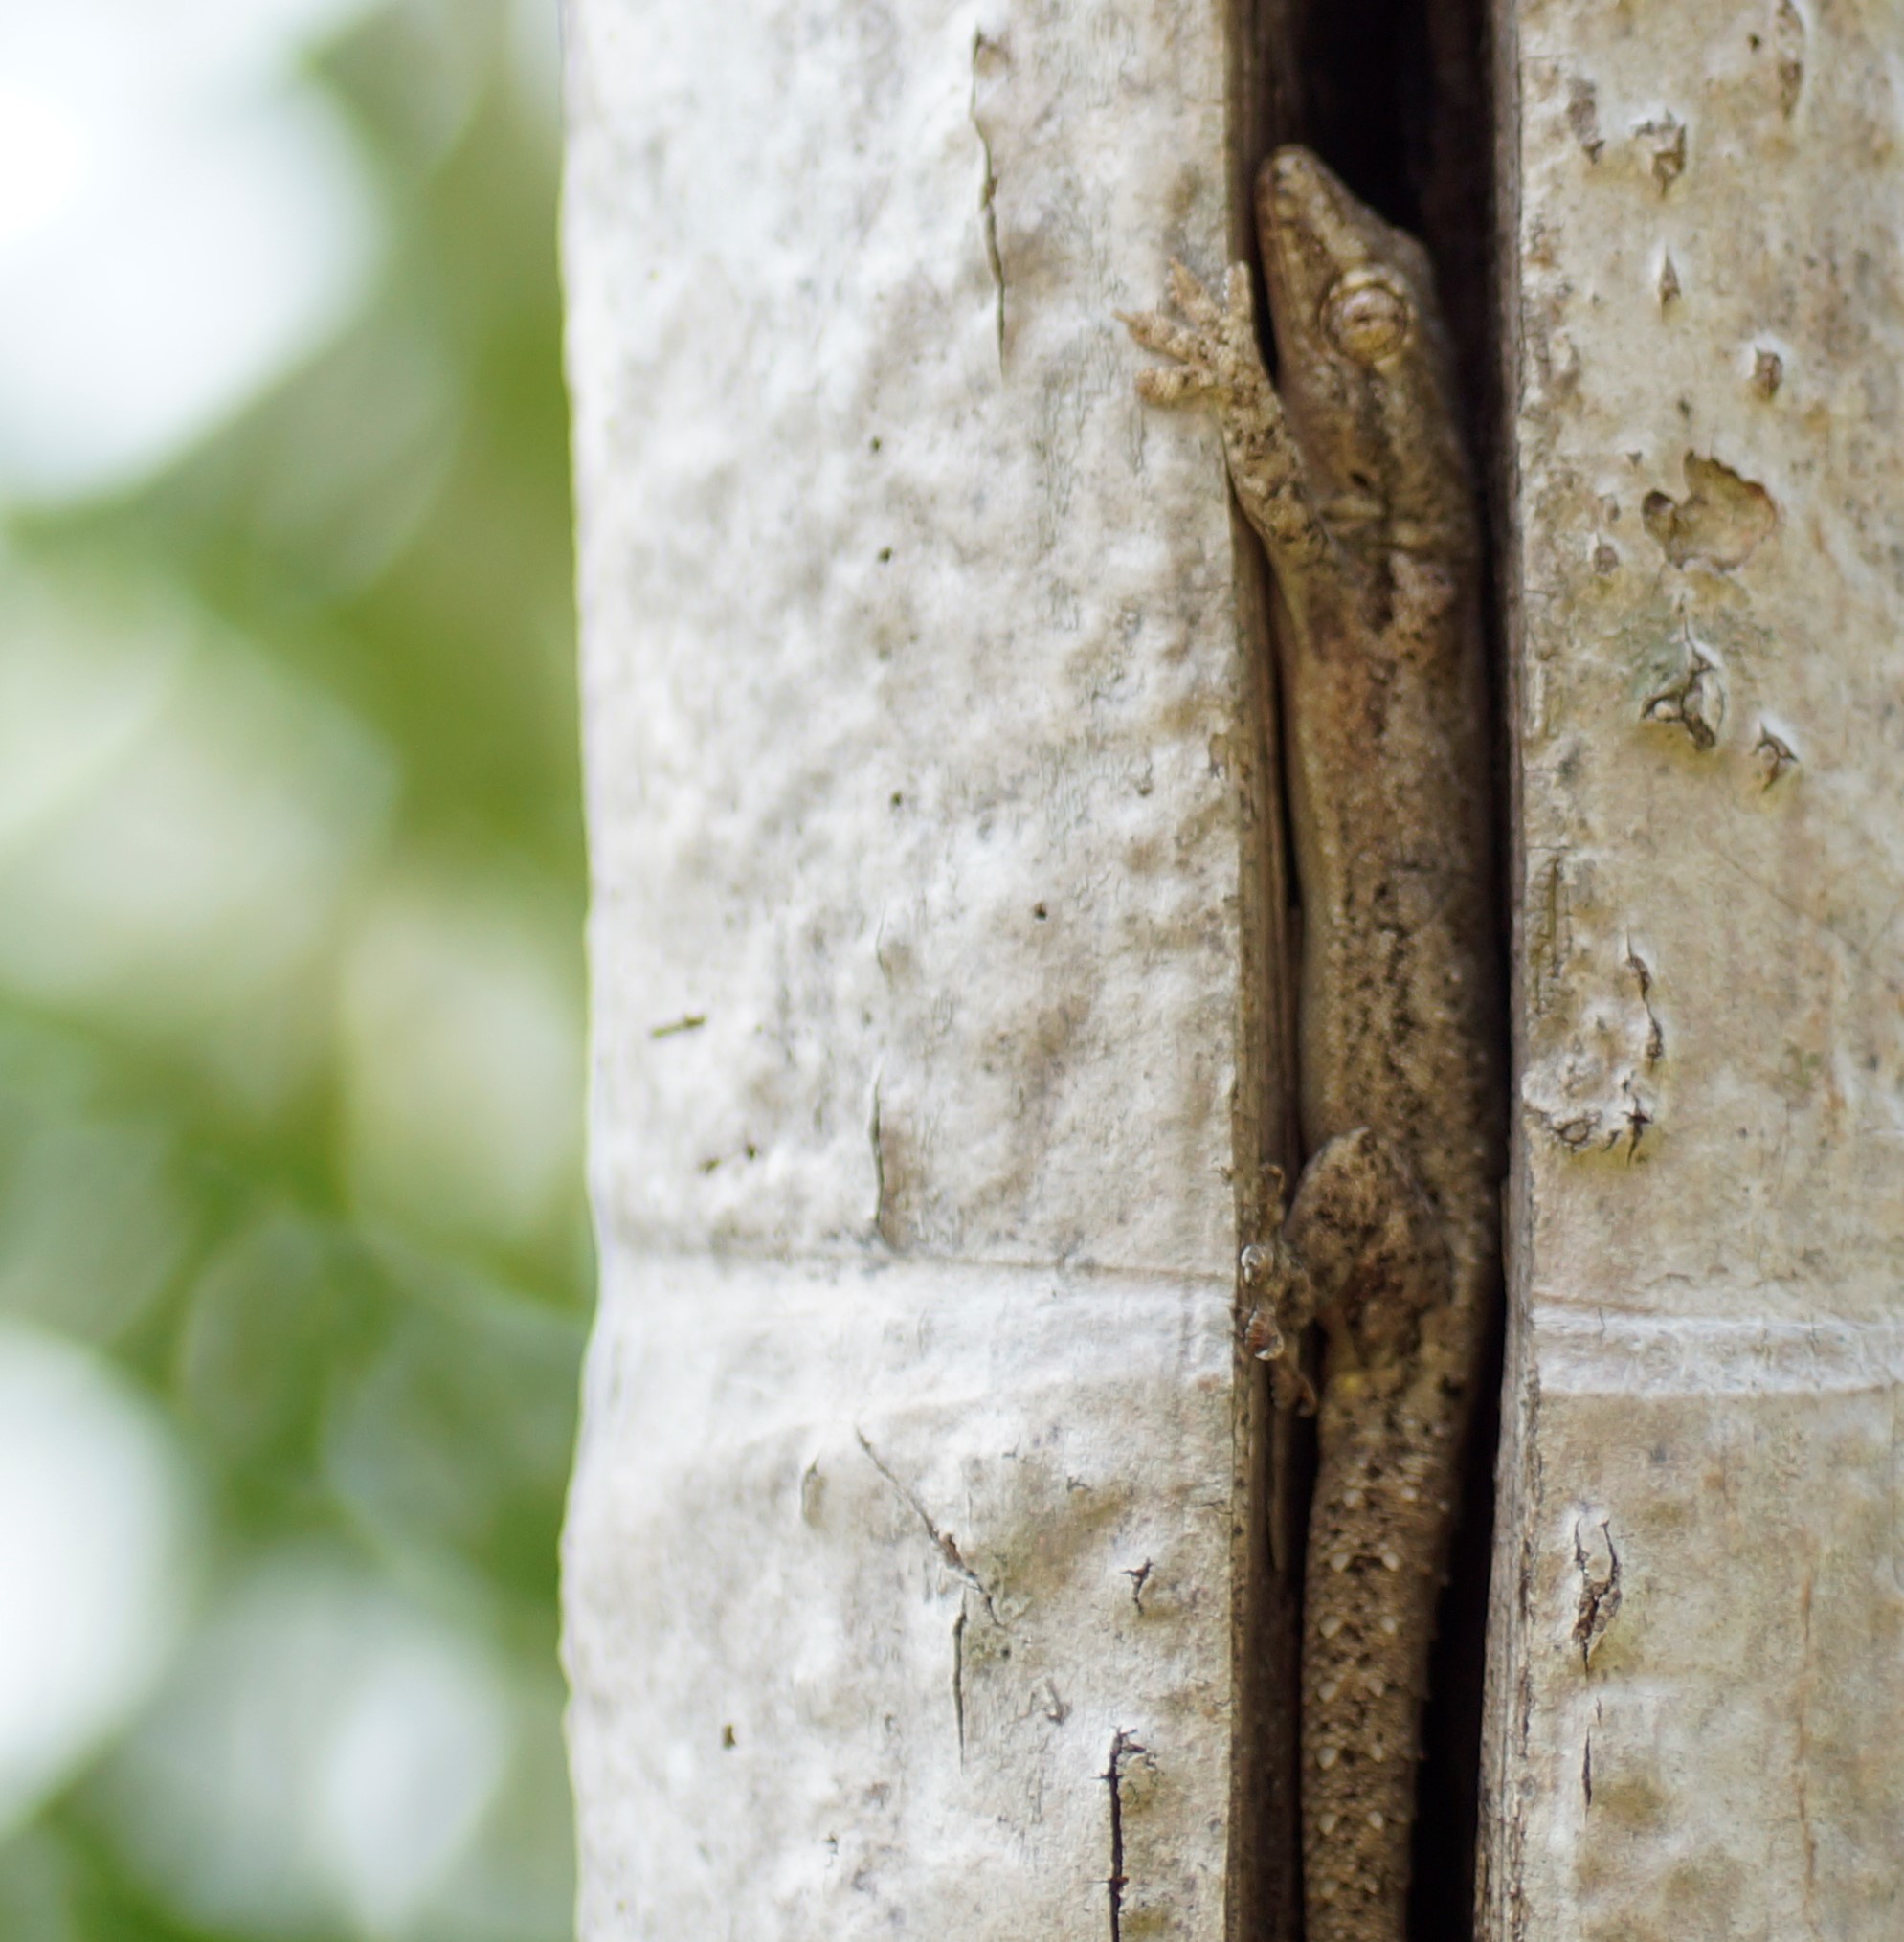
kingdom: Animalia
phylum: Chordata
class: Squamata
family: Gekkonidae
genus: Hemidactylus
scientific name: Hemidactylus frenatus
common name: Common house gecko
